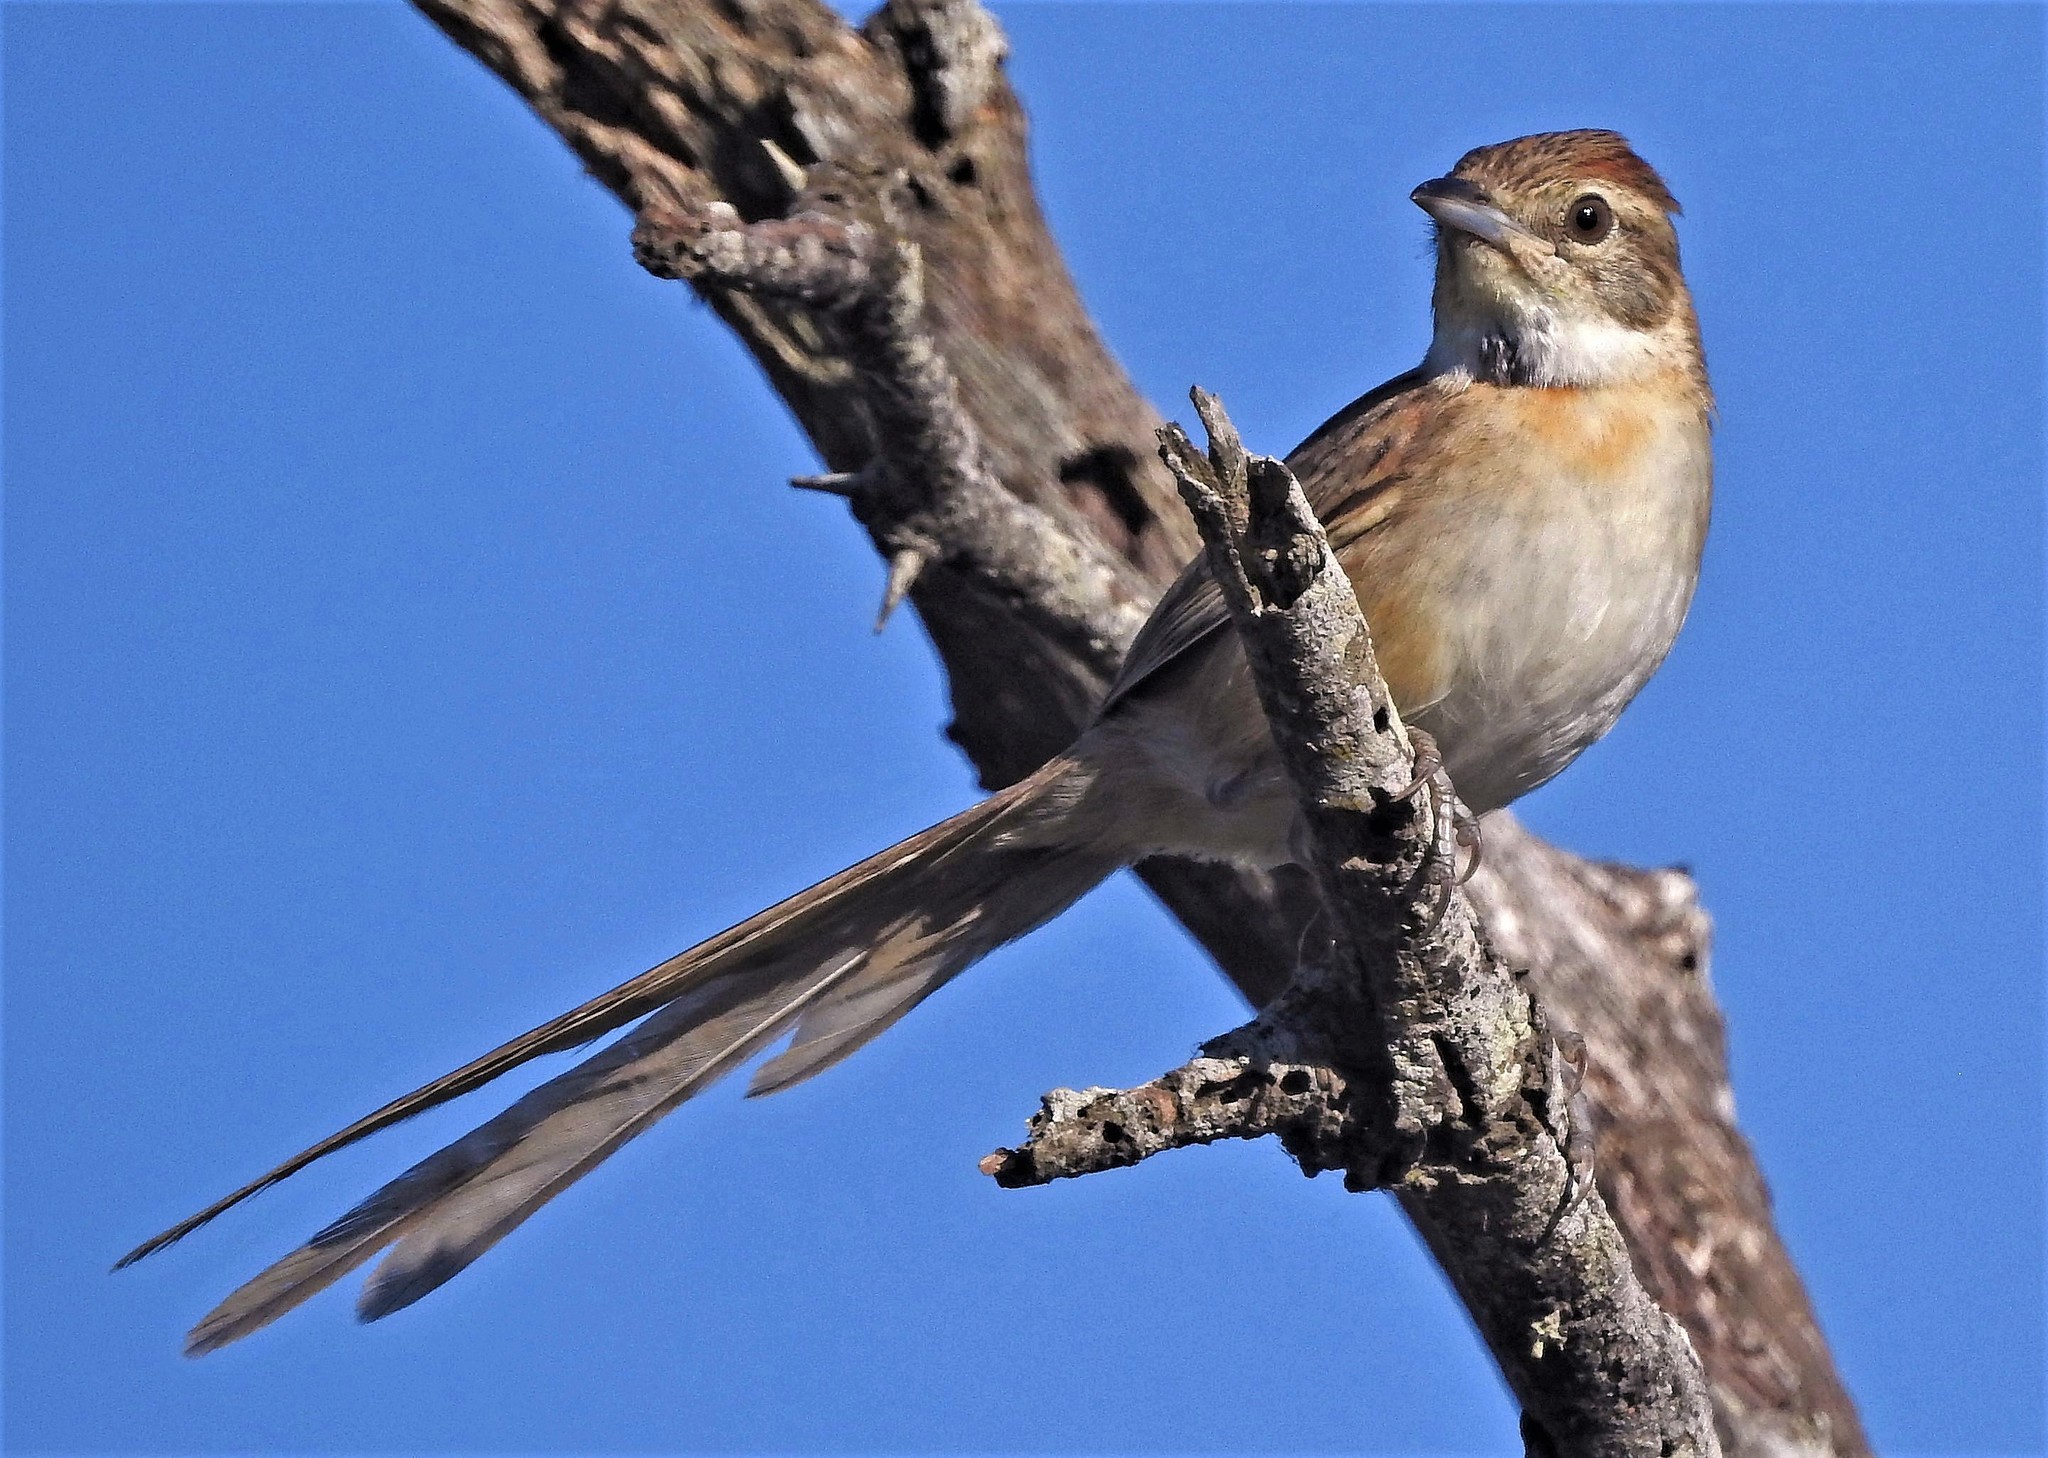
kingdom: Animalia
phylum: Chordata
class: Aves
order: Passeriformes
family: Furnariidae
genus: Schoeniophylax
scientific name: Schoeniophylax phryganophilus
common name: Chotoy spinetail
